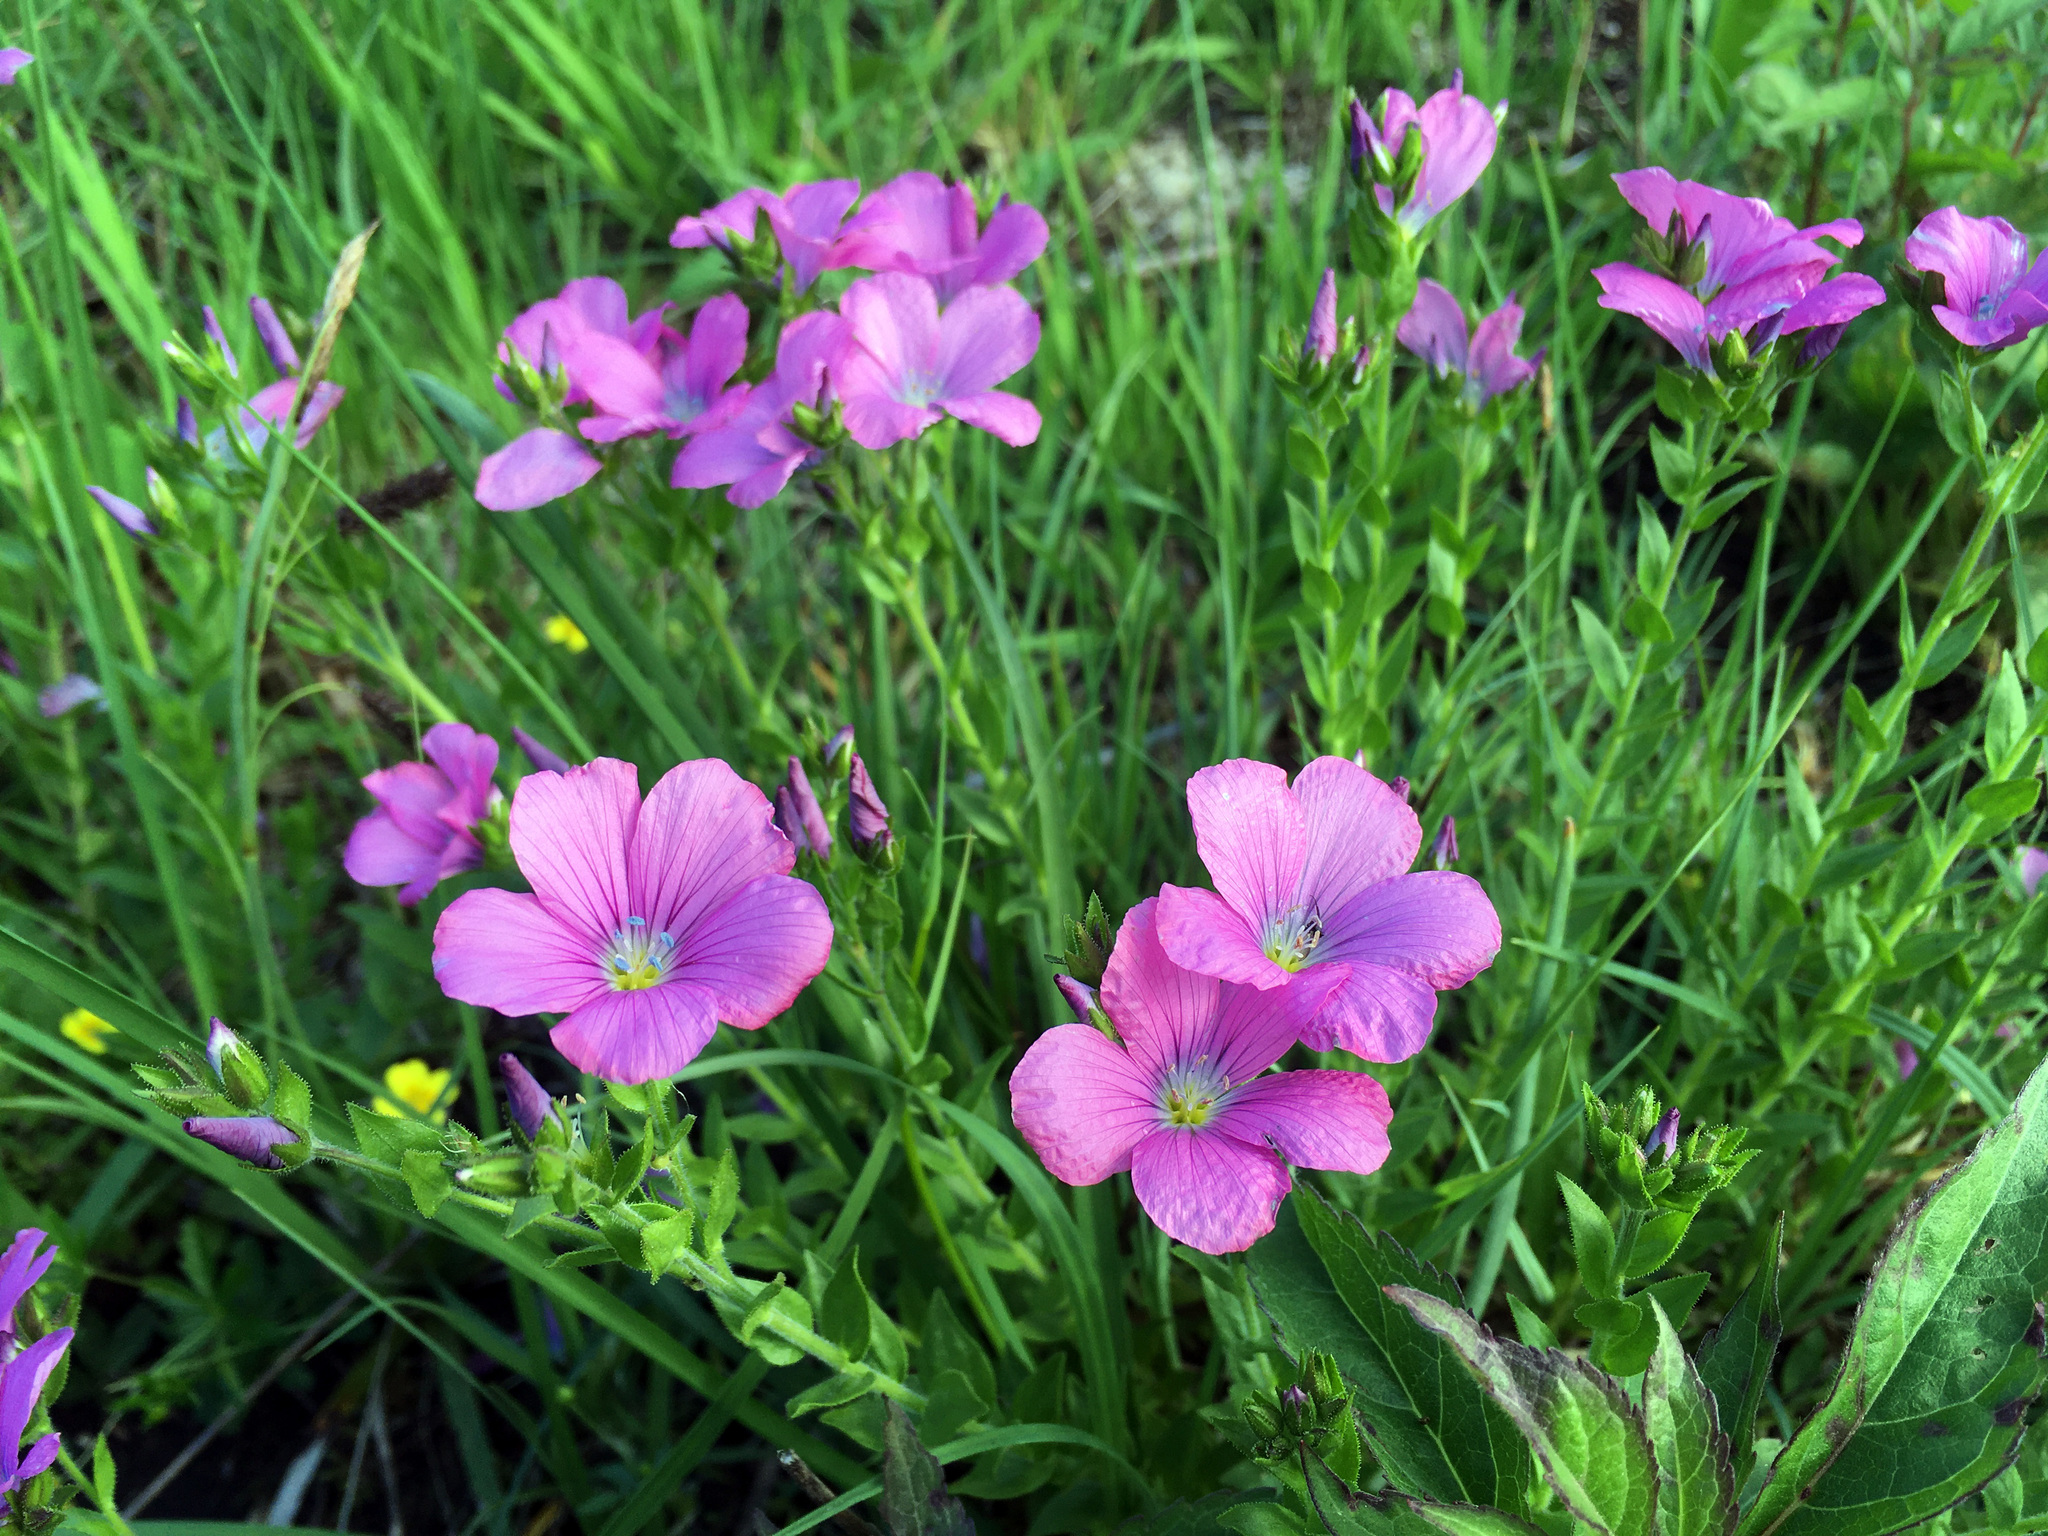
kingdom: Plantae
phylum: Tracheophyta
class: Magnoliopsida
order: Malpighiales
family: Linaceae
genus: Linum
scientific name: Linum viscosum
